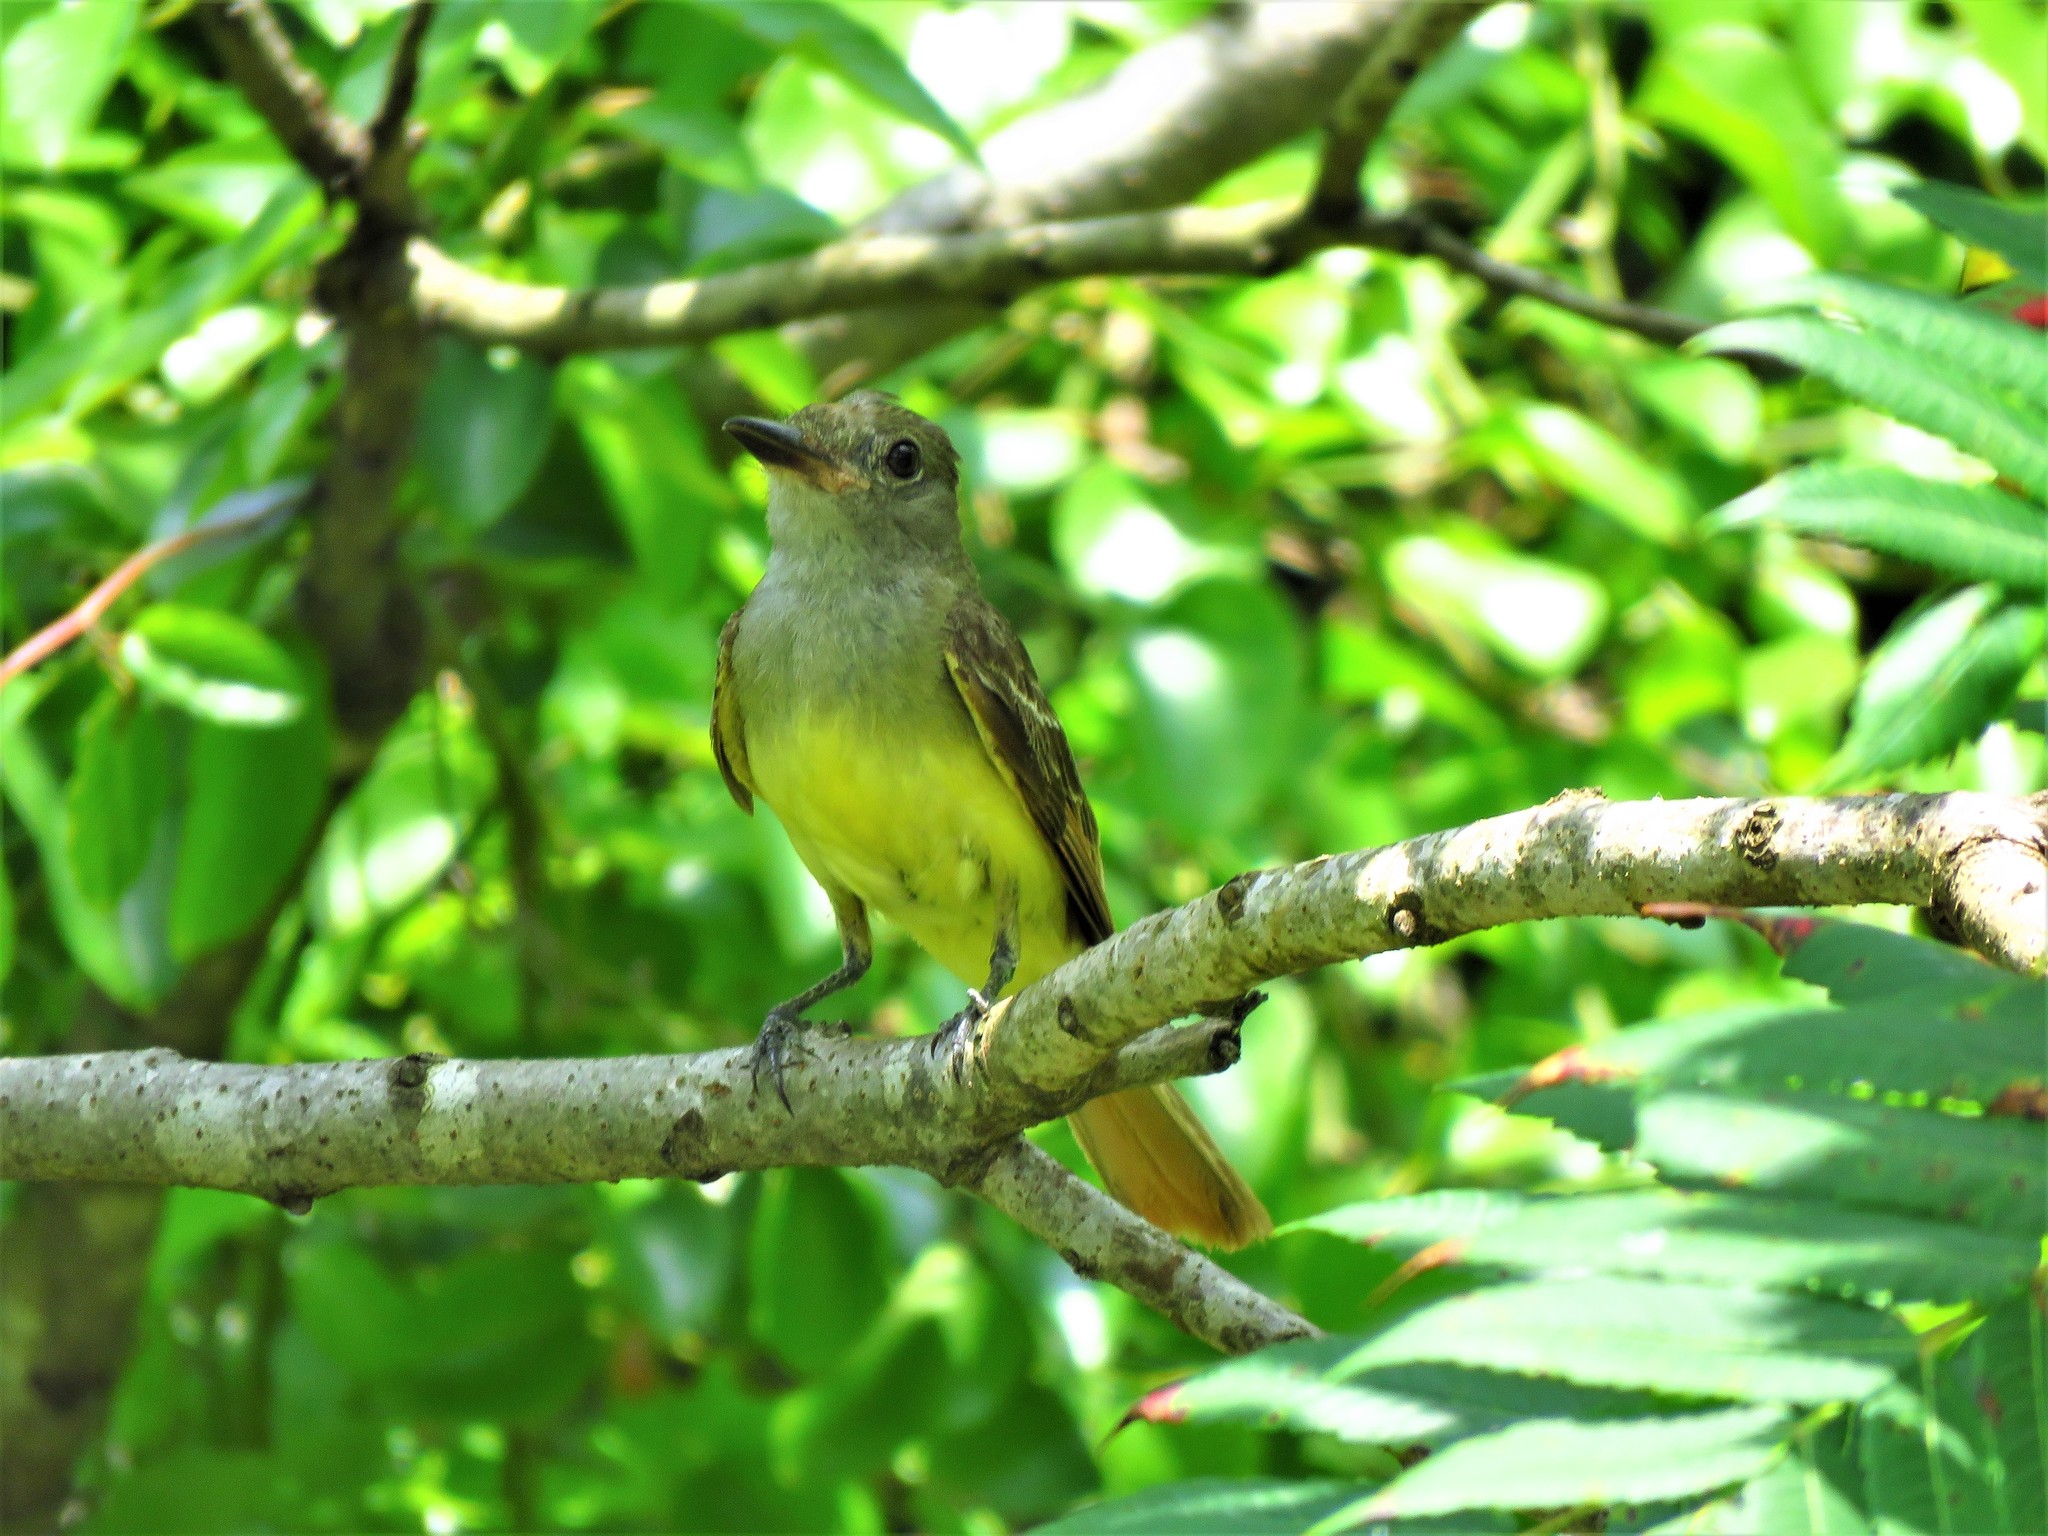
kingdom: Animalia
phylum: Chordata
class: Aves
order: Passeriformes
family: Tyrannidae
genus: Myiarchus
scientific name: Myiarchus crinitus
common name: Great crested flycatcher
